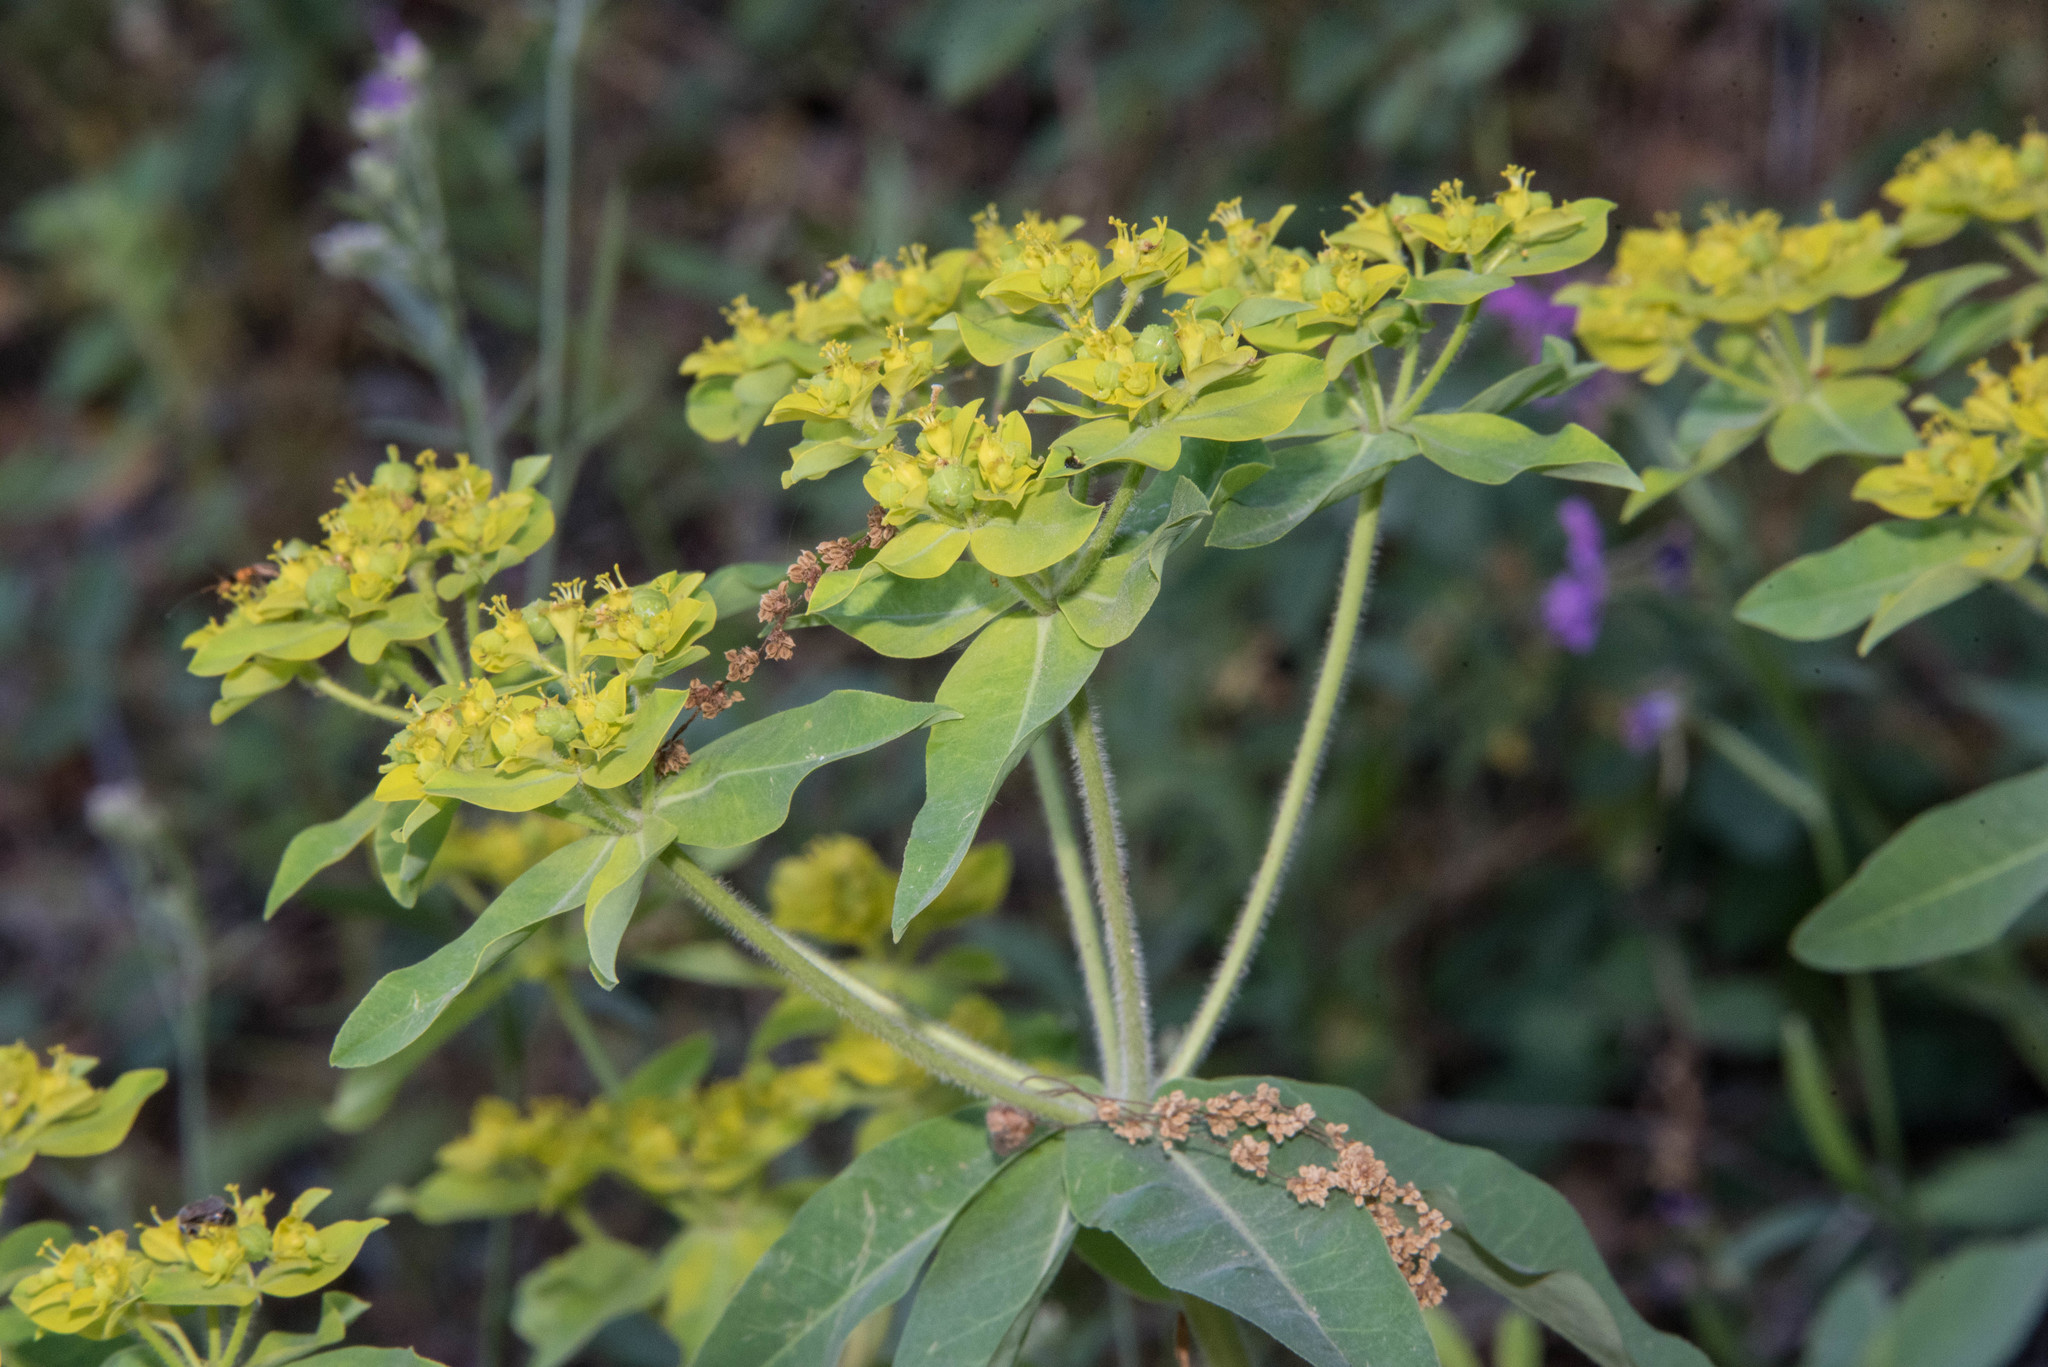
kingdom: Plantae
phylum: Tracheophyta
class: Magnoliopsida
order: Malpighiales
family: Euphorbiaceae
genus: Euphorbia
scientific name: Euphorbia oblongata
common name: Balkan spurge
